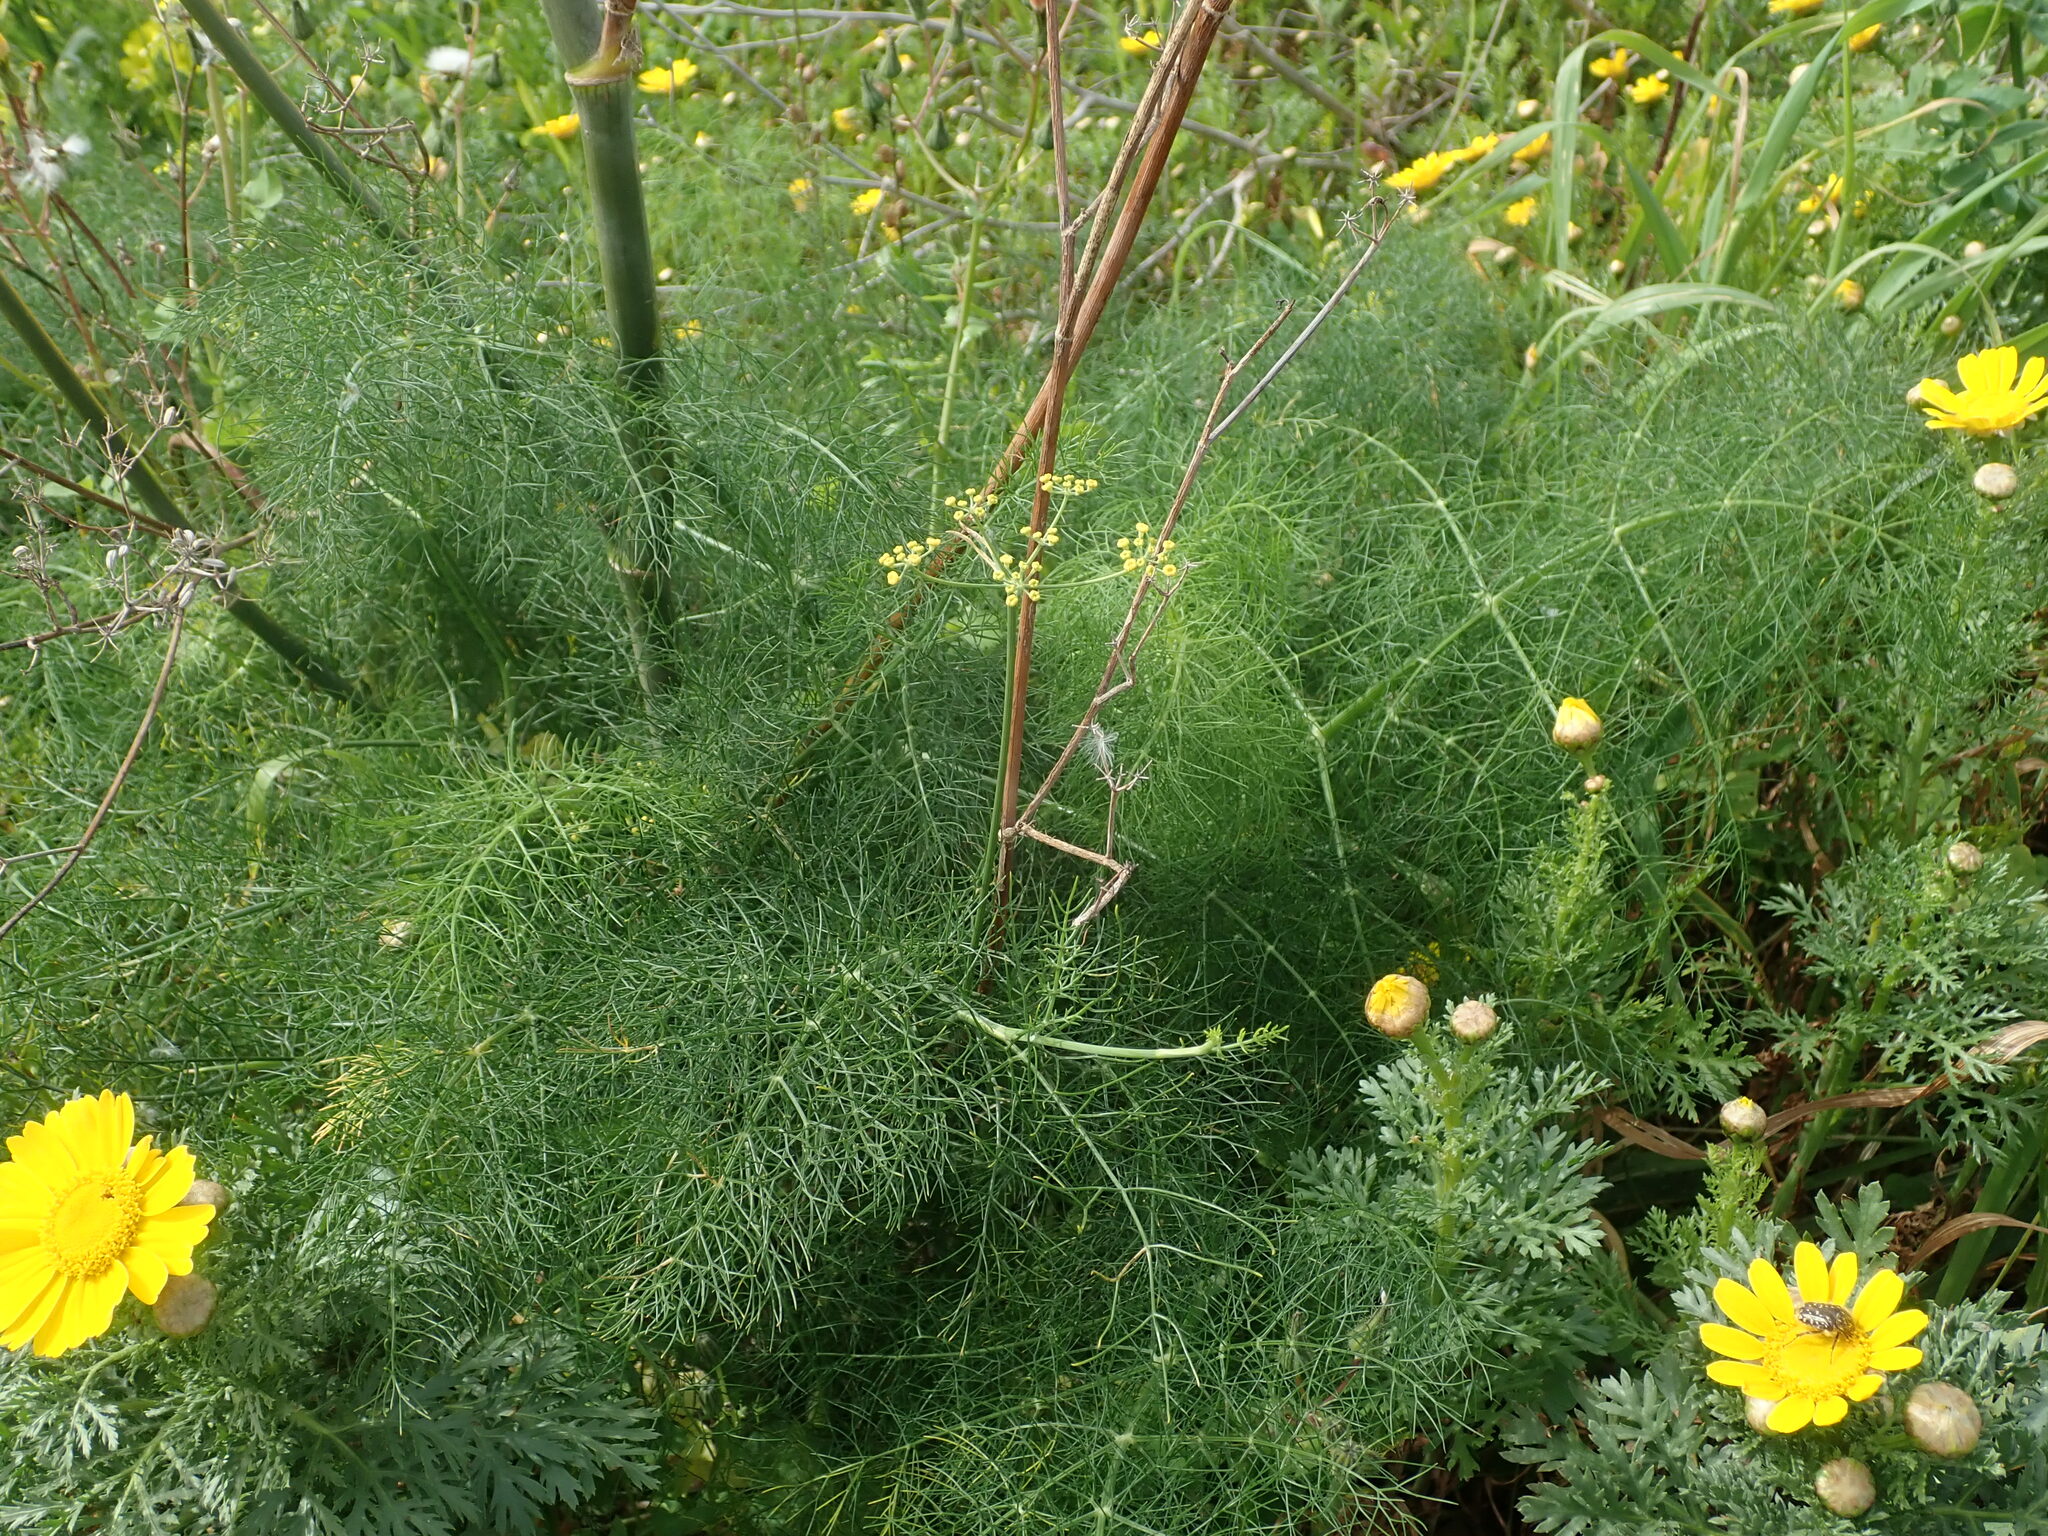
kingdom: Plantae
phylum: Tracheophyta
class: Magnoliopsida
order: Apiales
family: Apiaceae
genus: Foeniculum
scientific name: Foeniculum vulgare
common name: Fennel
